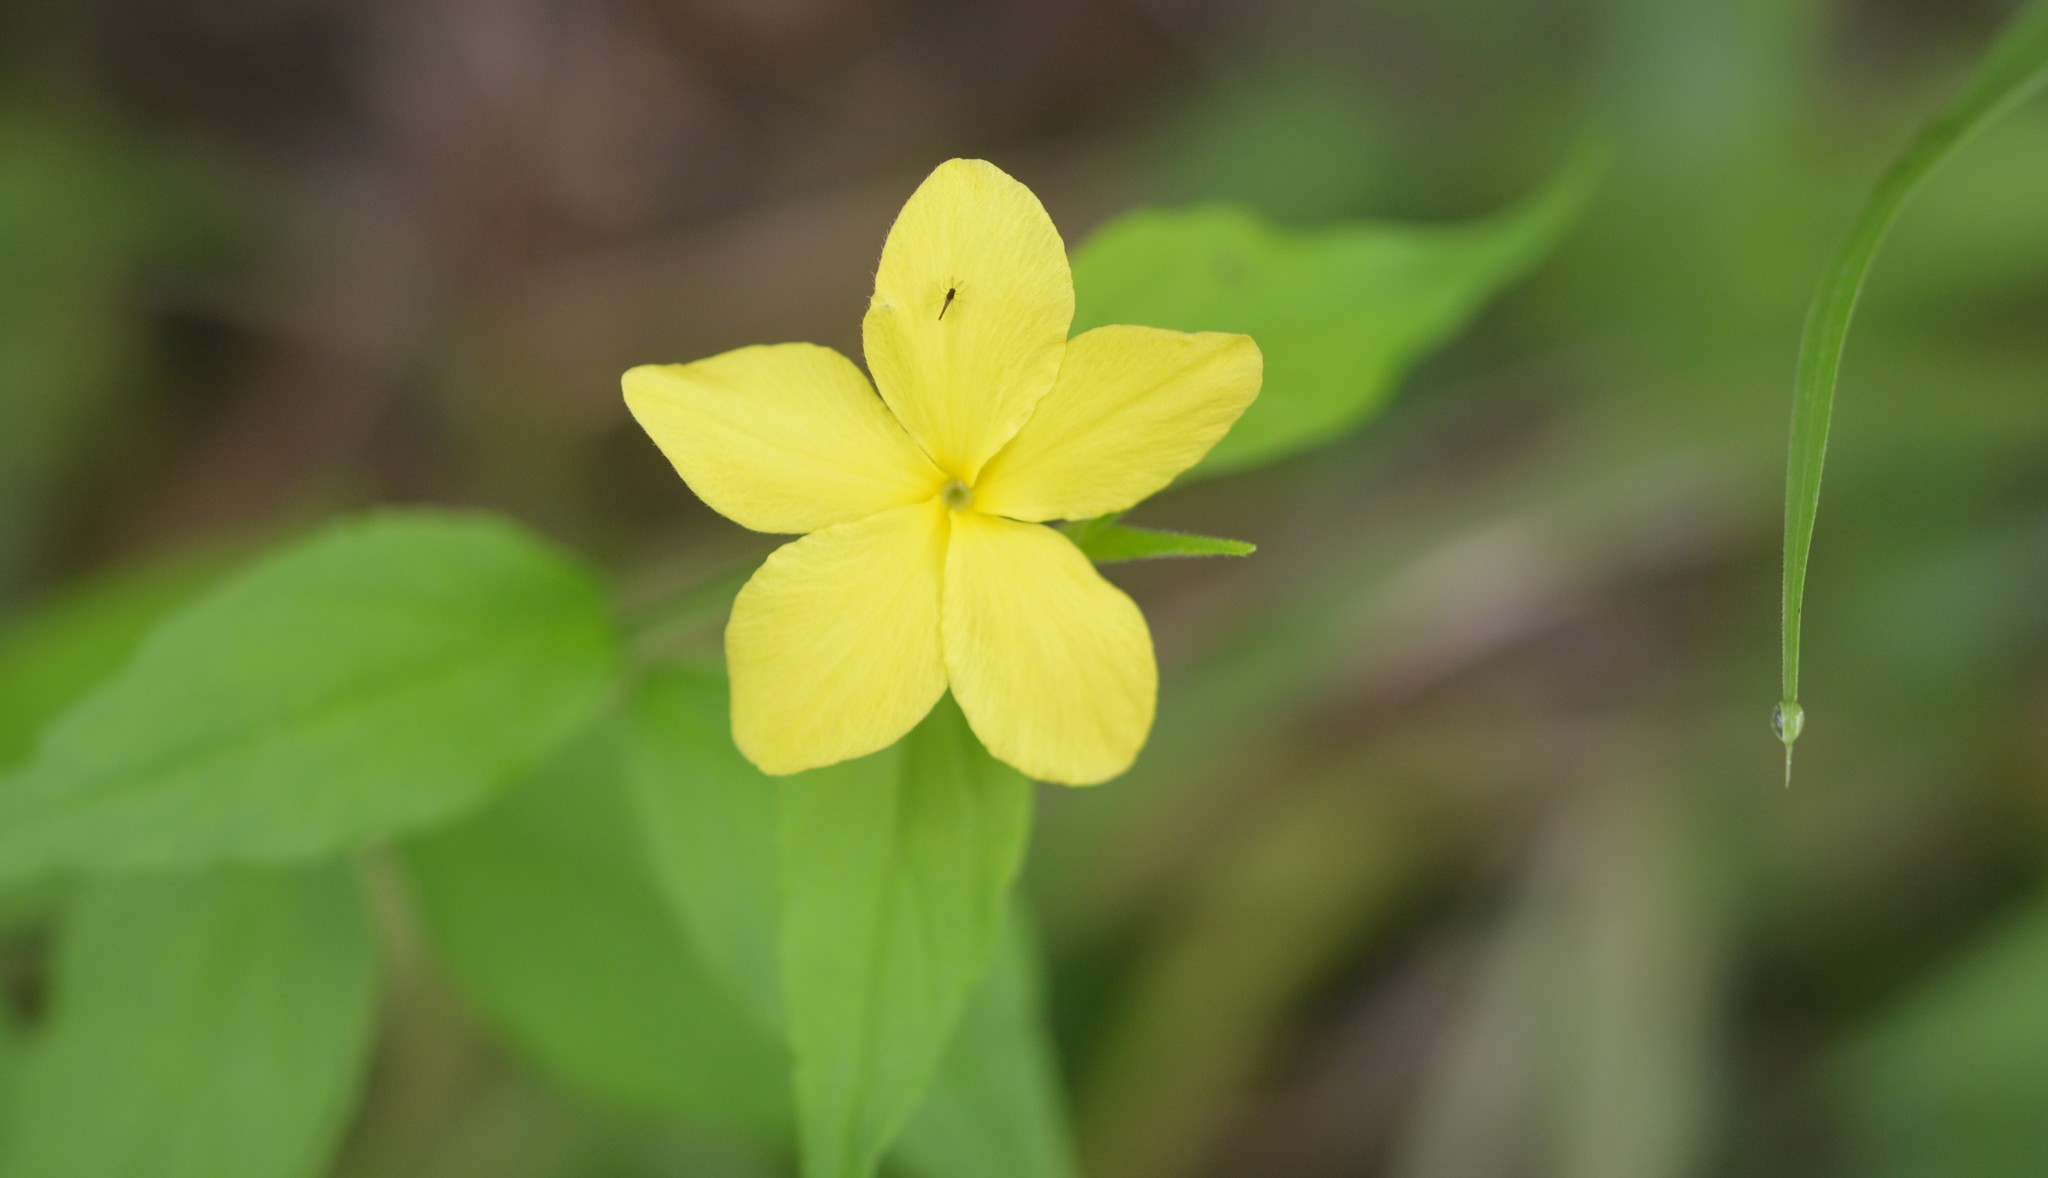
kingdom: Plantae
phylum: Tracheophyta
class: Magnoliopsida
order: Gentianales
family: Apocynaceae
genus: Haplophyton
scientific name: Haplophyton cimicidum
